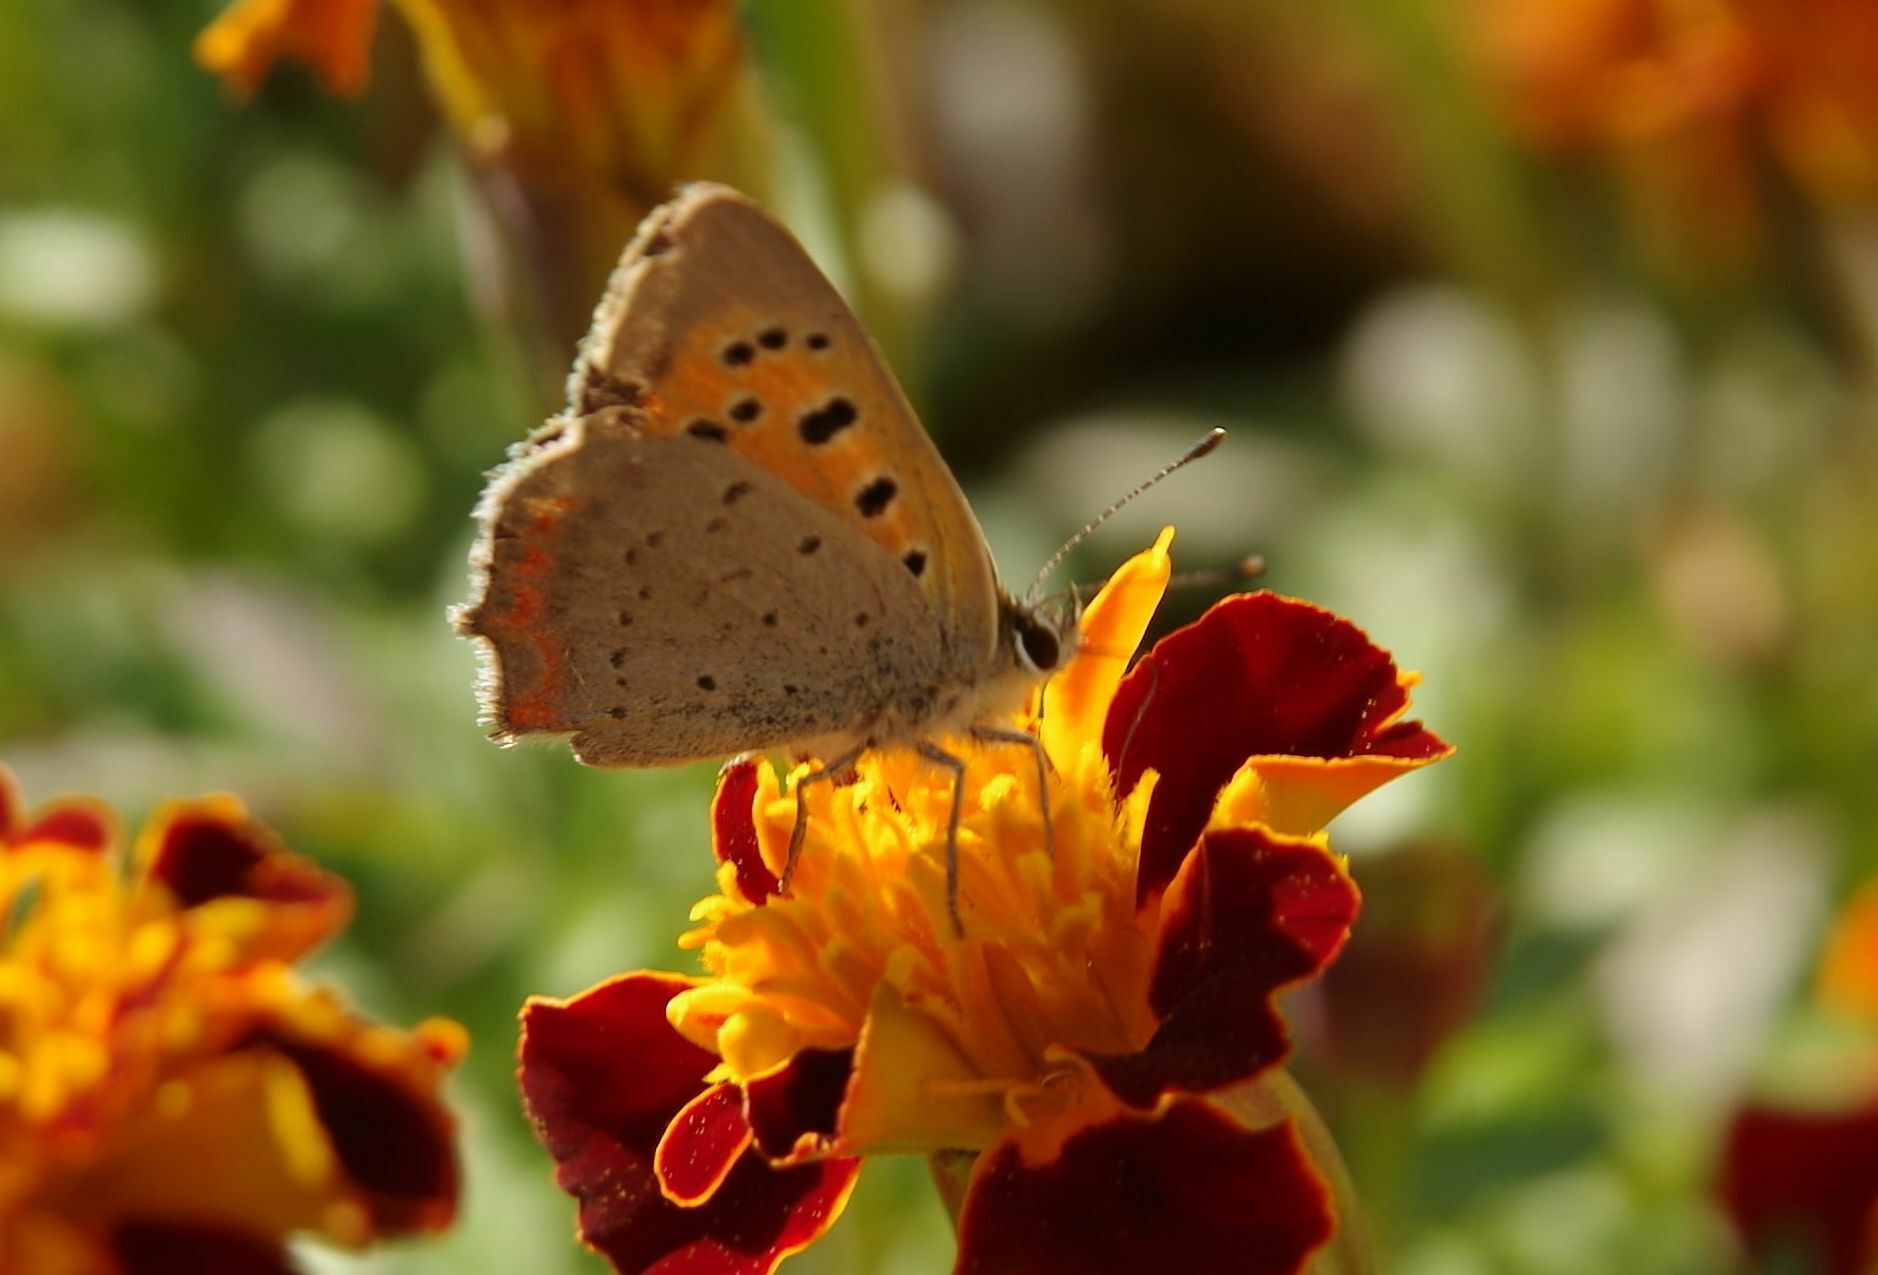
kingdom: Animalia
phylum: Arthropoda
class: Insecta
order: Lepidoptera
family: Lycaenidae
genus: Lycaena
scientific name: Lycaena phlaeas
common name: Small copper
